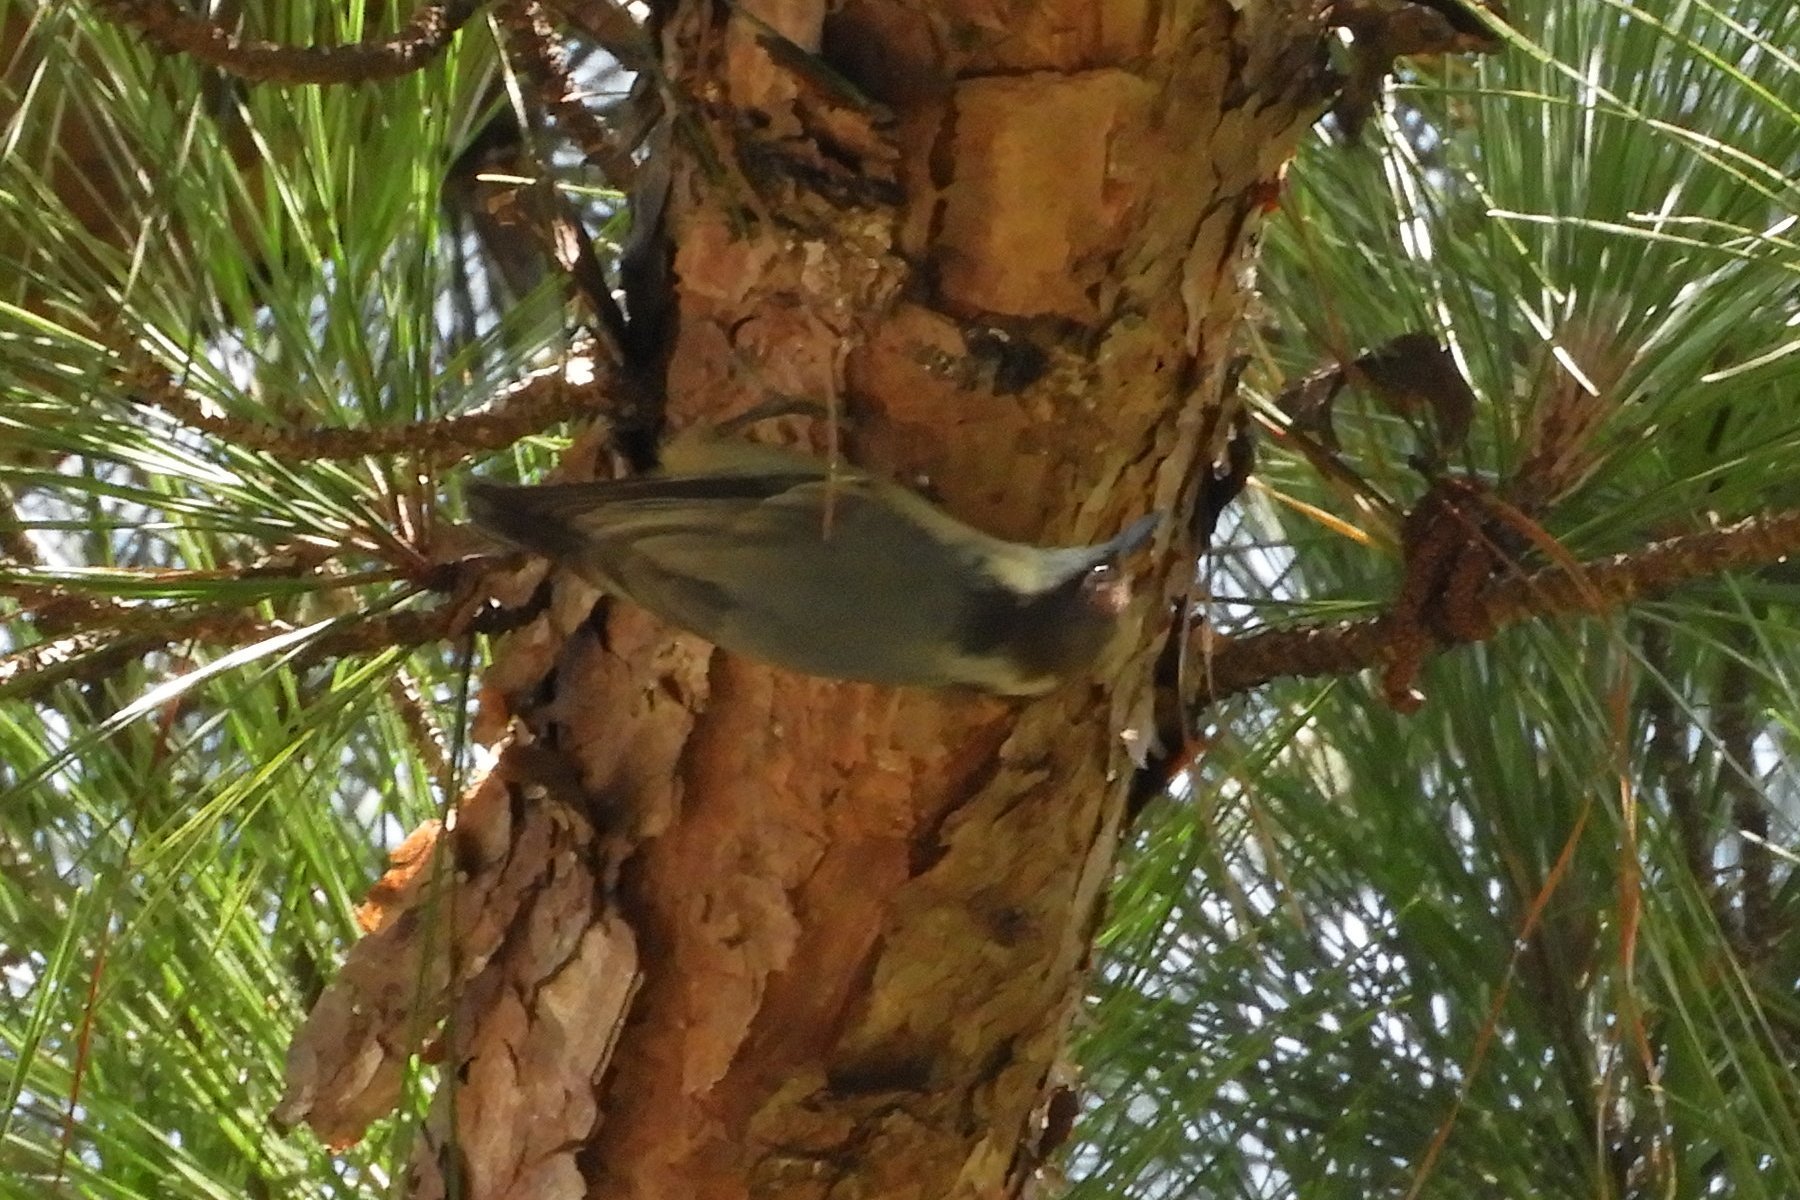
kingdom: Animalia
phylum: Chordata
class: Aves
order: Passeriformes
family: Sittidae
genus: Sitta
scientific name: Sitta pusilla
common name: Brown-headed nuthatch
